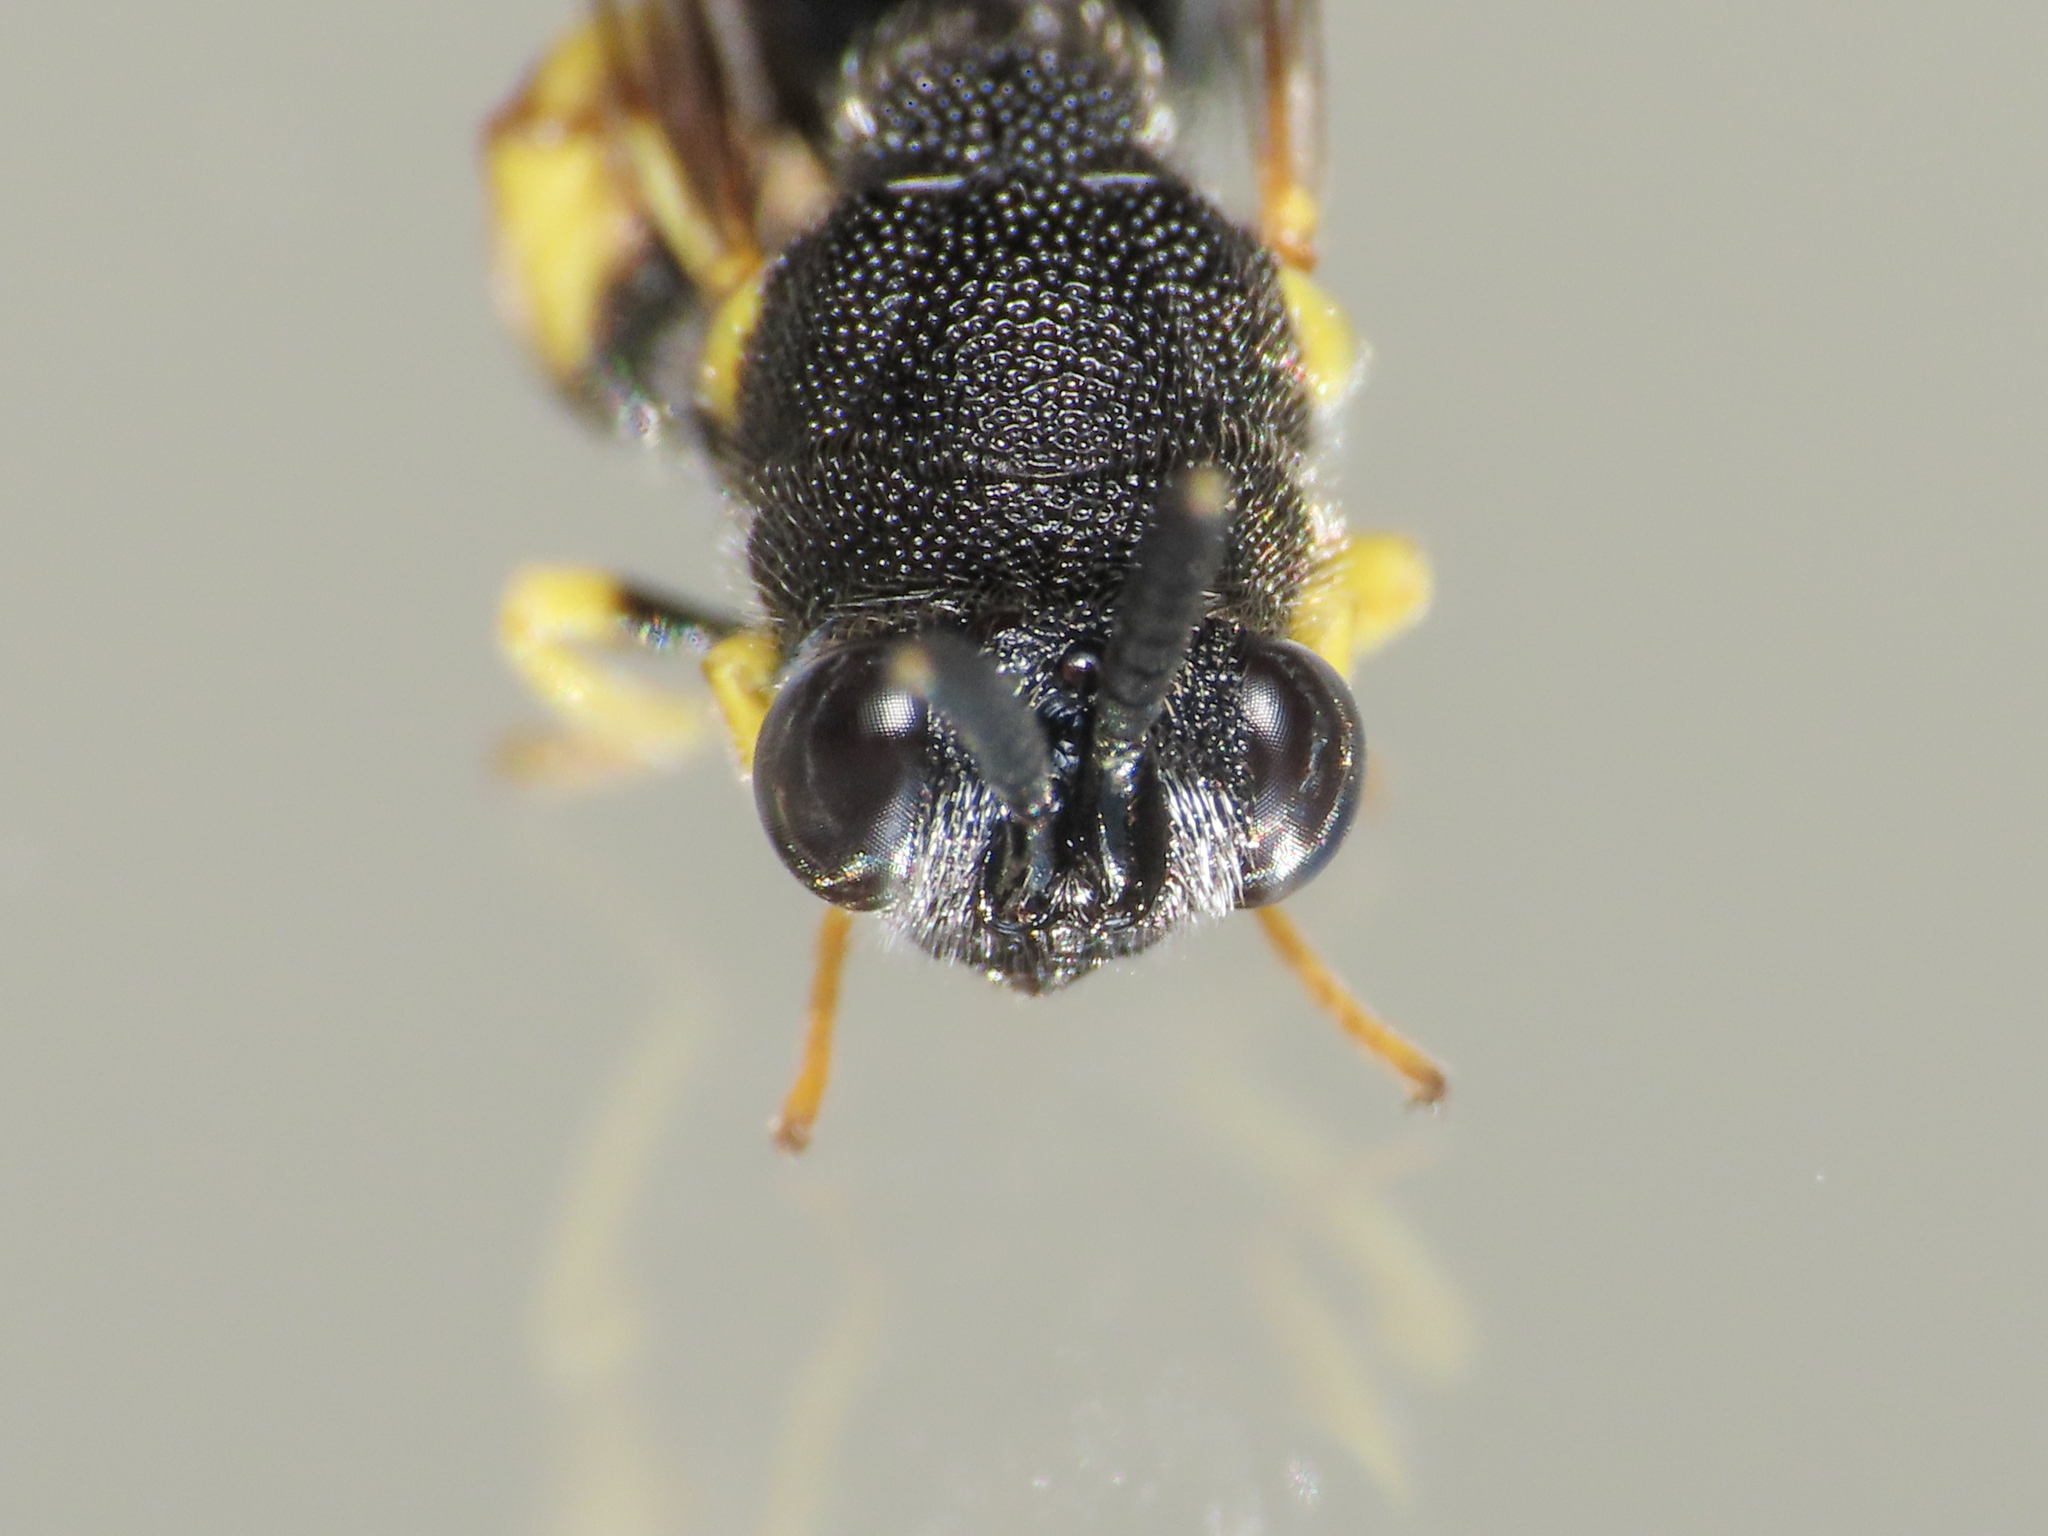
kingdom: Animalia
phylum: Arthropoda
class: Insecta
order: Hymenoptera
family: Chalcididae
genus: Brachymeria
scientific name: Brachymeria femorata
